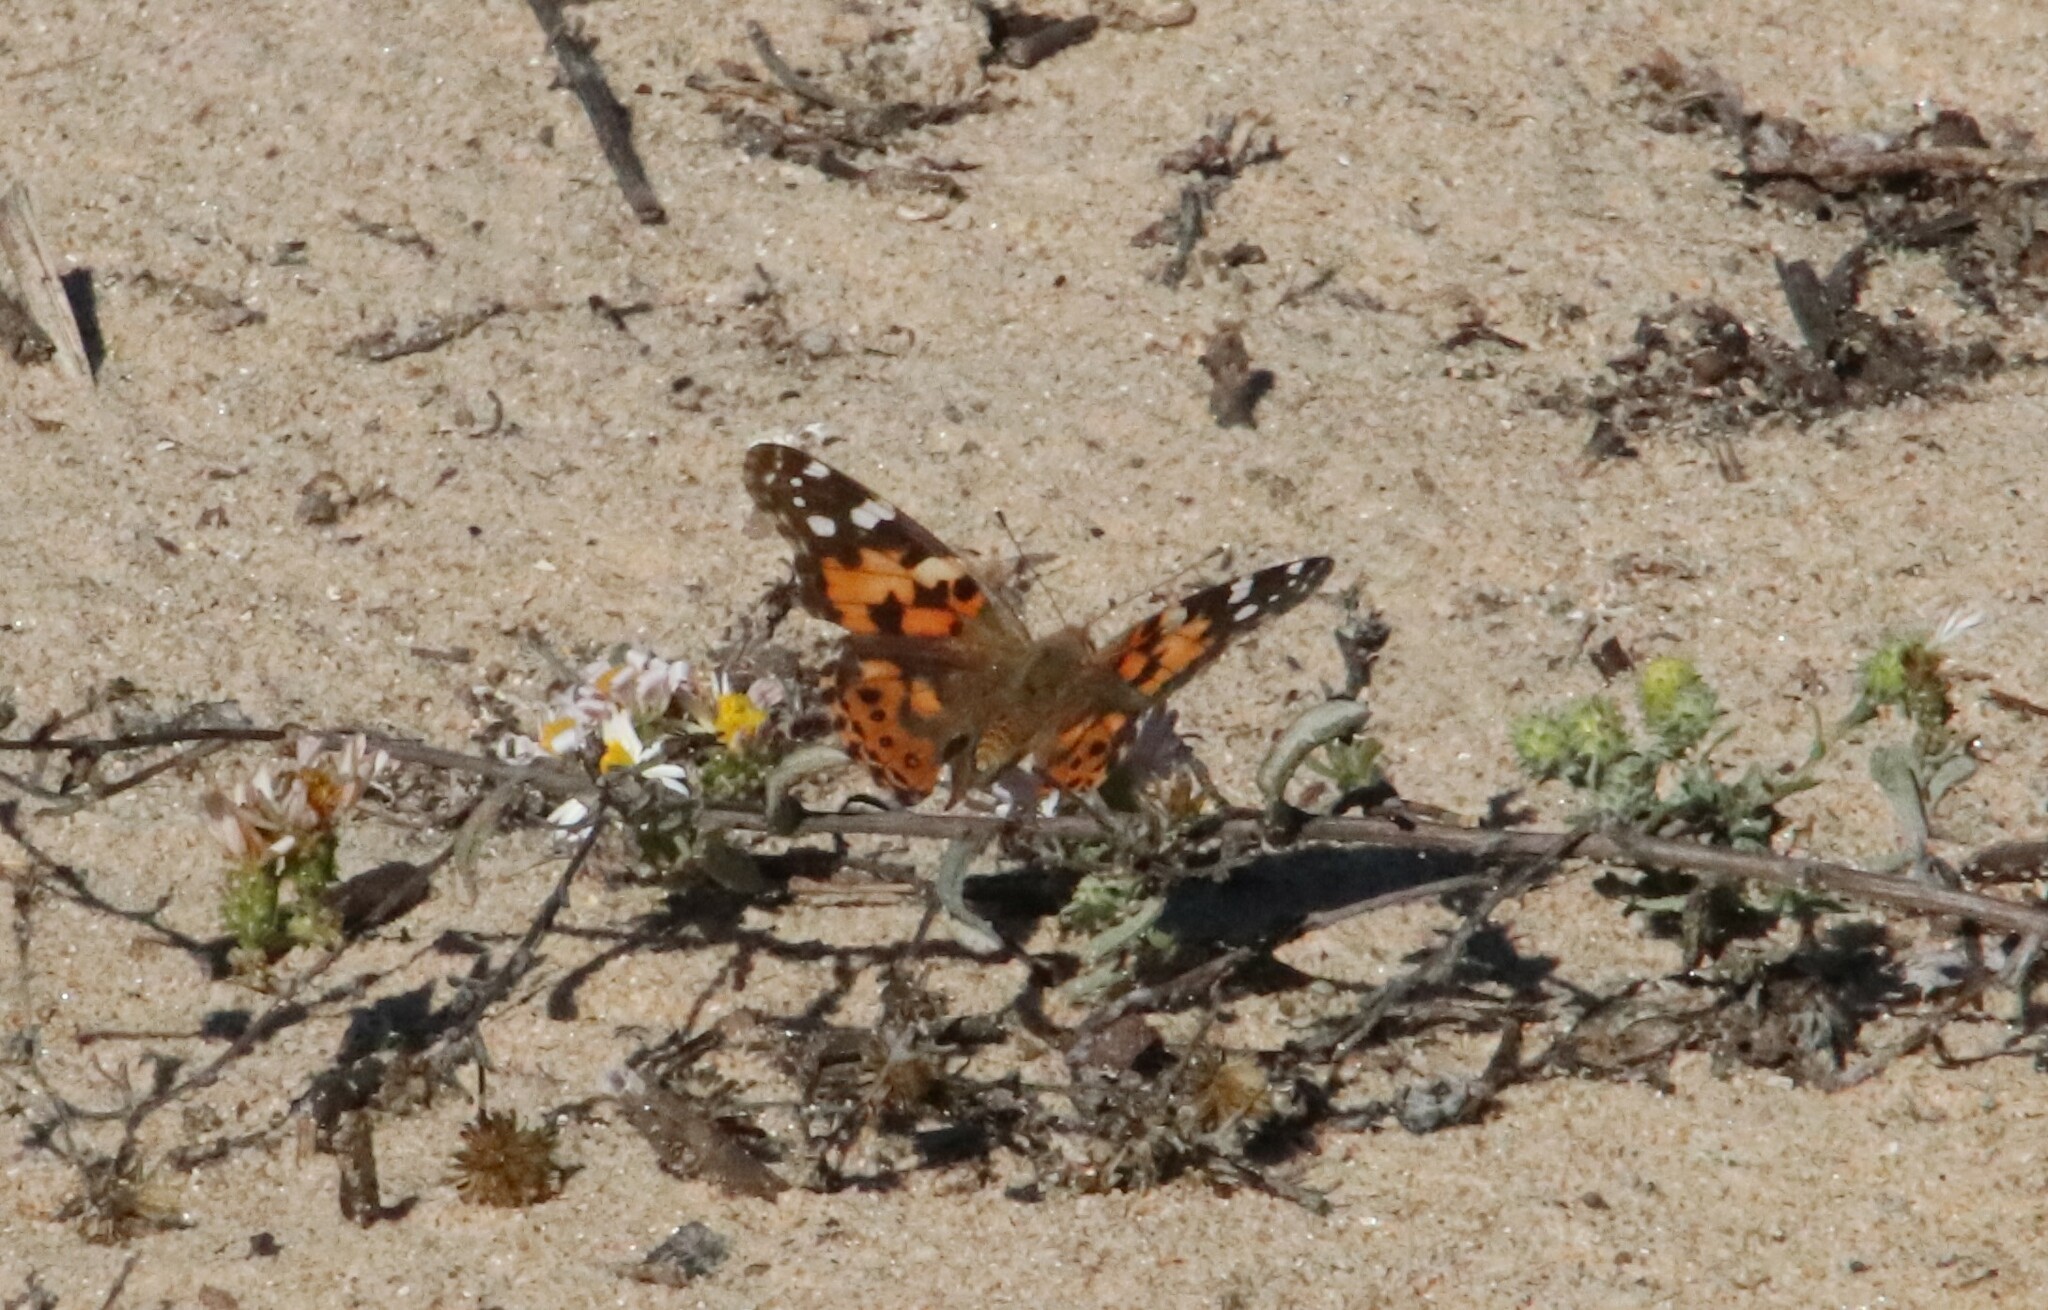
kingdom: Animalia
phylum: Arthropoda
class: Insecta
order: Lepidoptera
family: Nymphalidae
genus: Vanessa
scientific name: Vanessa cardui
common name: Painted lady
